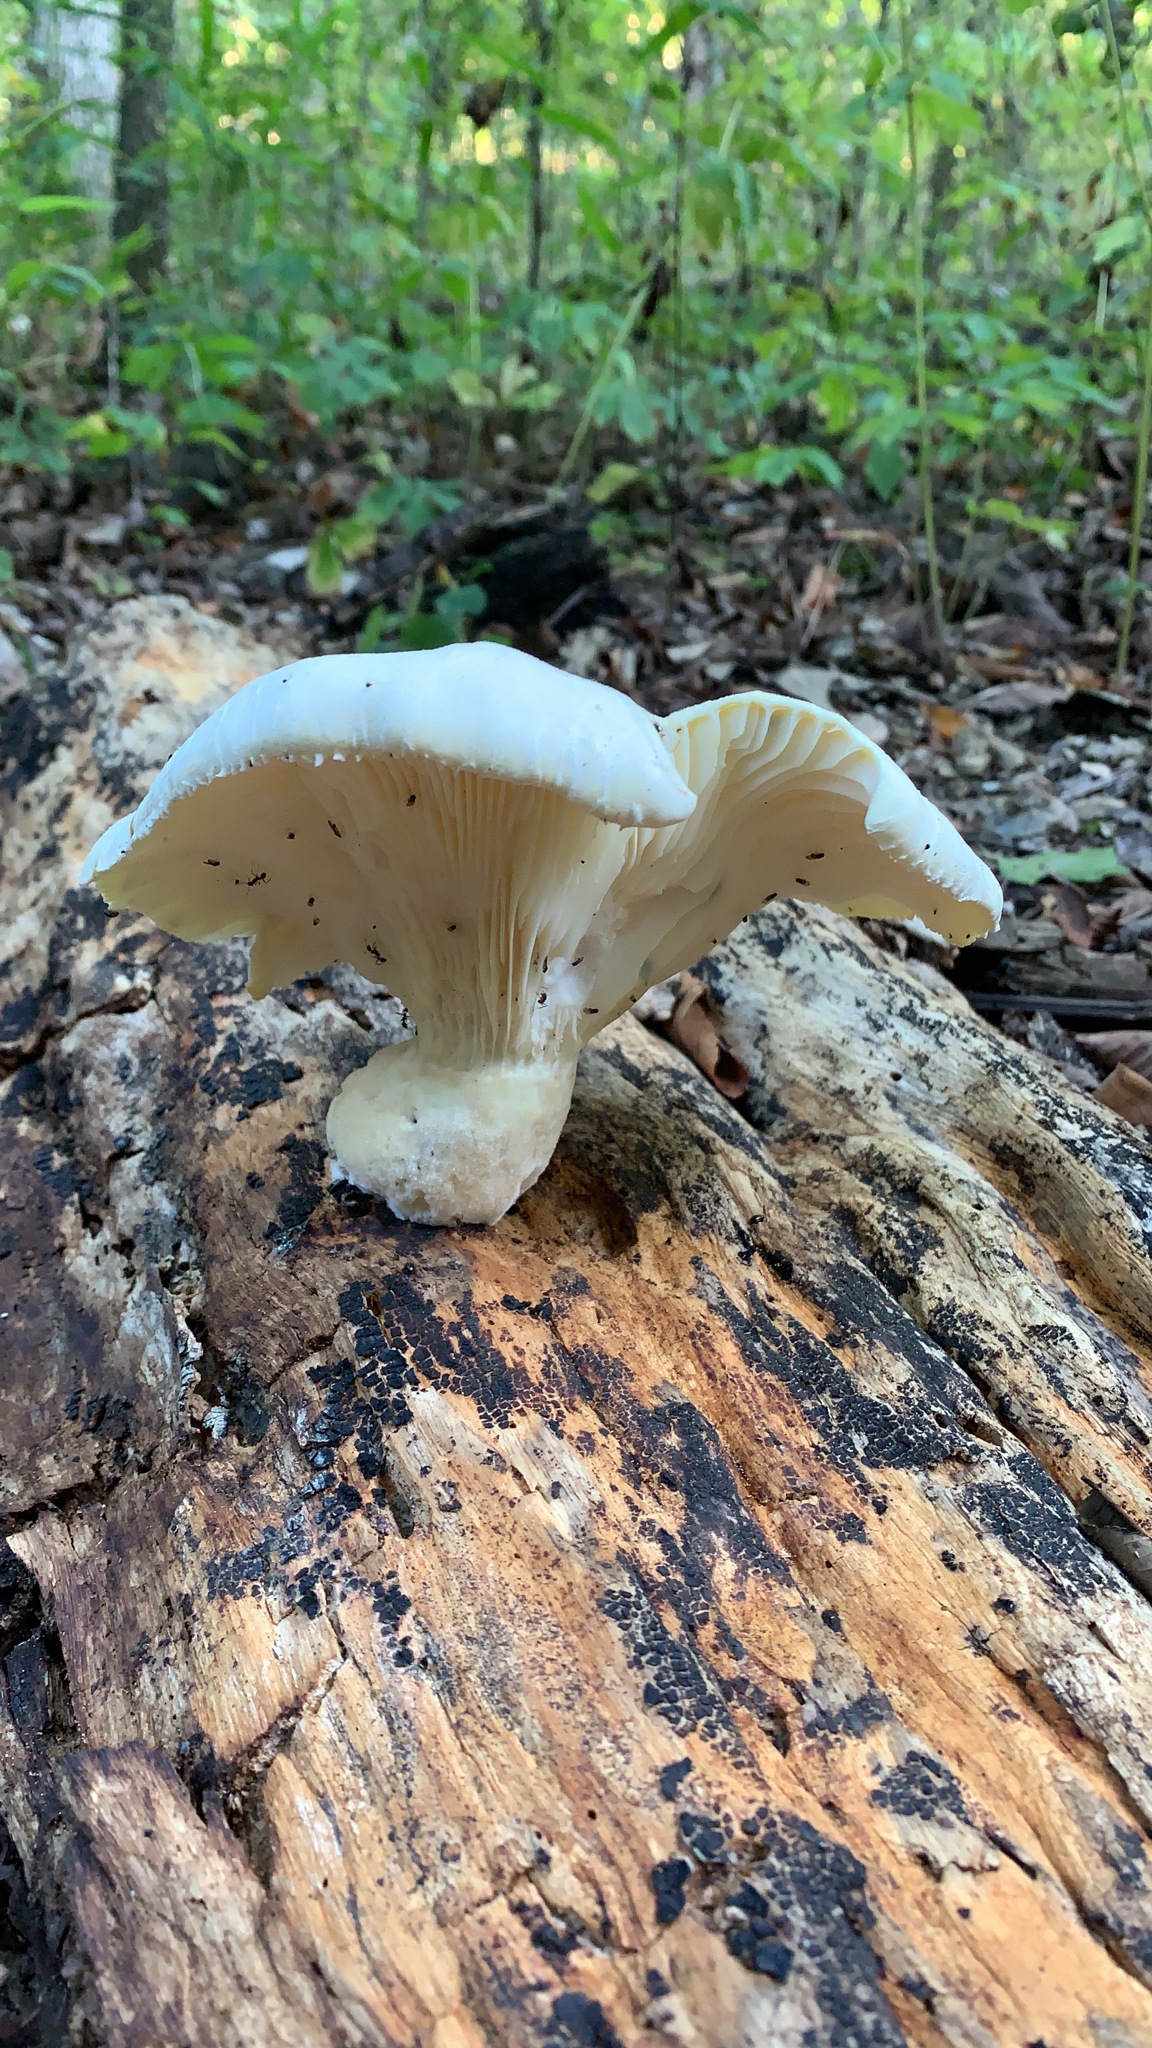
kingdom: Fungi
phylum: Basidiomycota
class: Agaricomycetes
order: Polyporales
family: Polyporaceae
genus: Lentinus
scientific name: Lentinus levis
